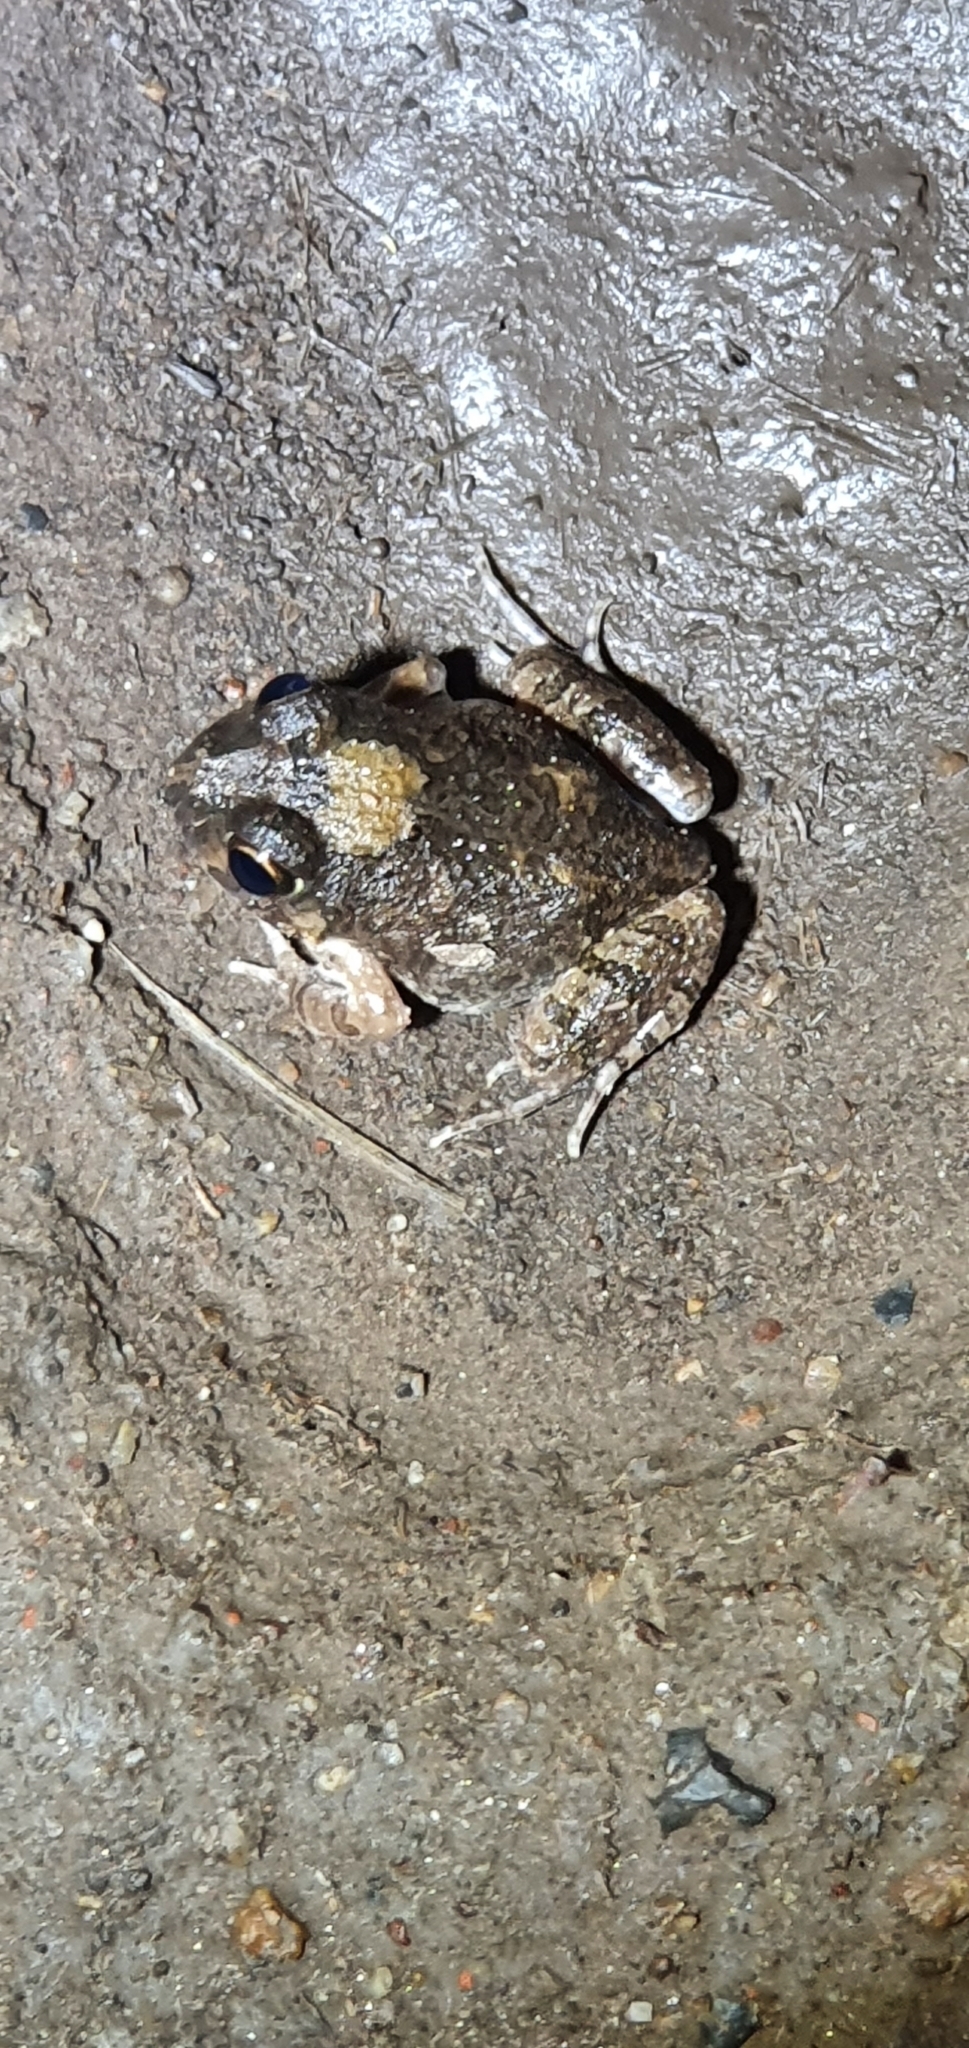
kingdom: Animalia
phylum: Chordata
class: Amphibia
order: Anura
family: Limnodynastidae
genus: Platyplectrum
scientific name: Platyplectrum ornatum
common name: Ornate burrowing frog
